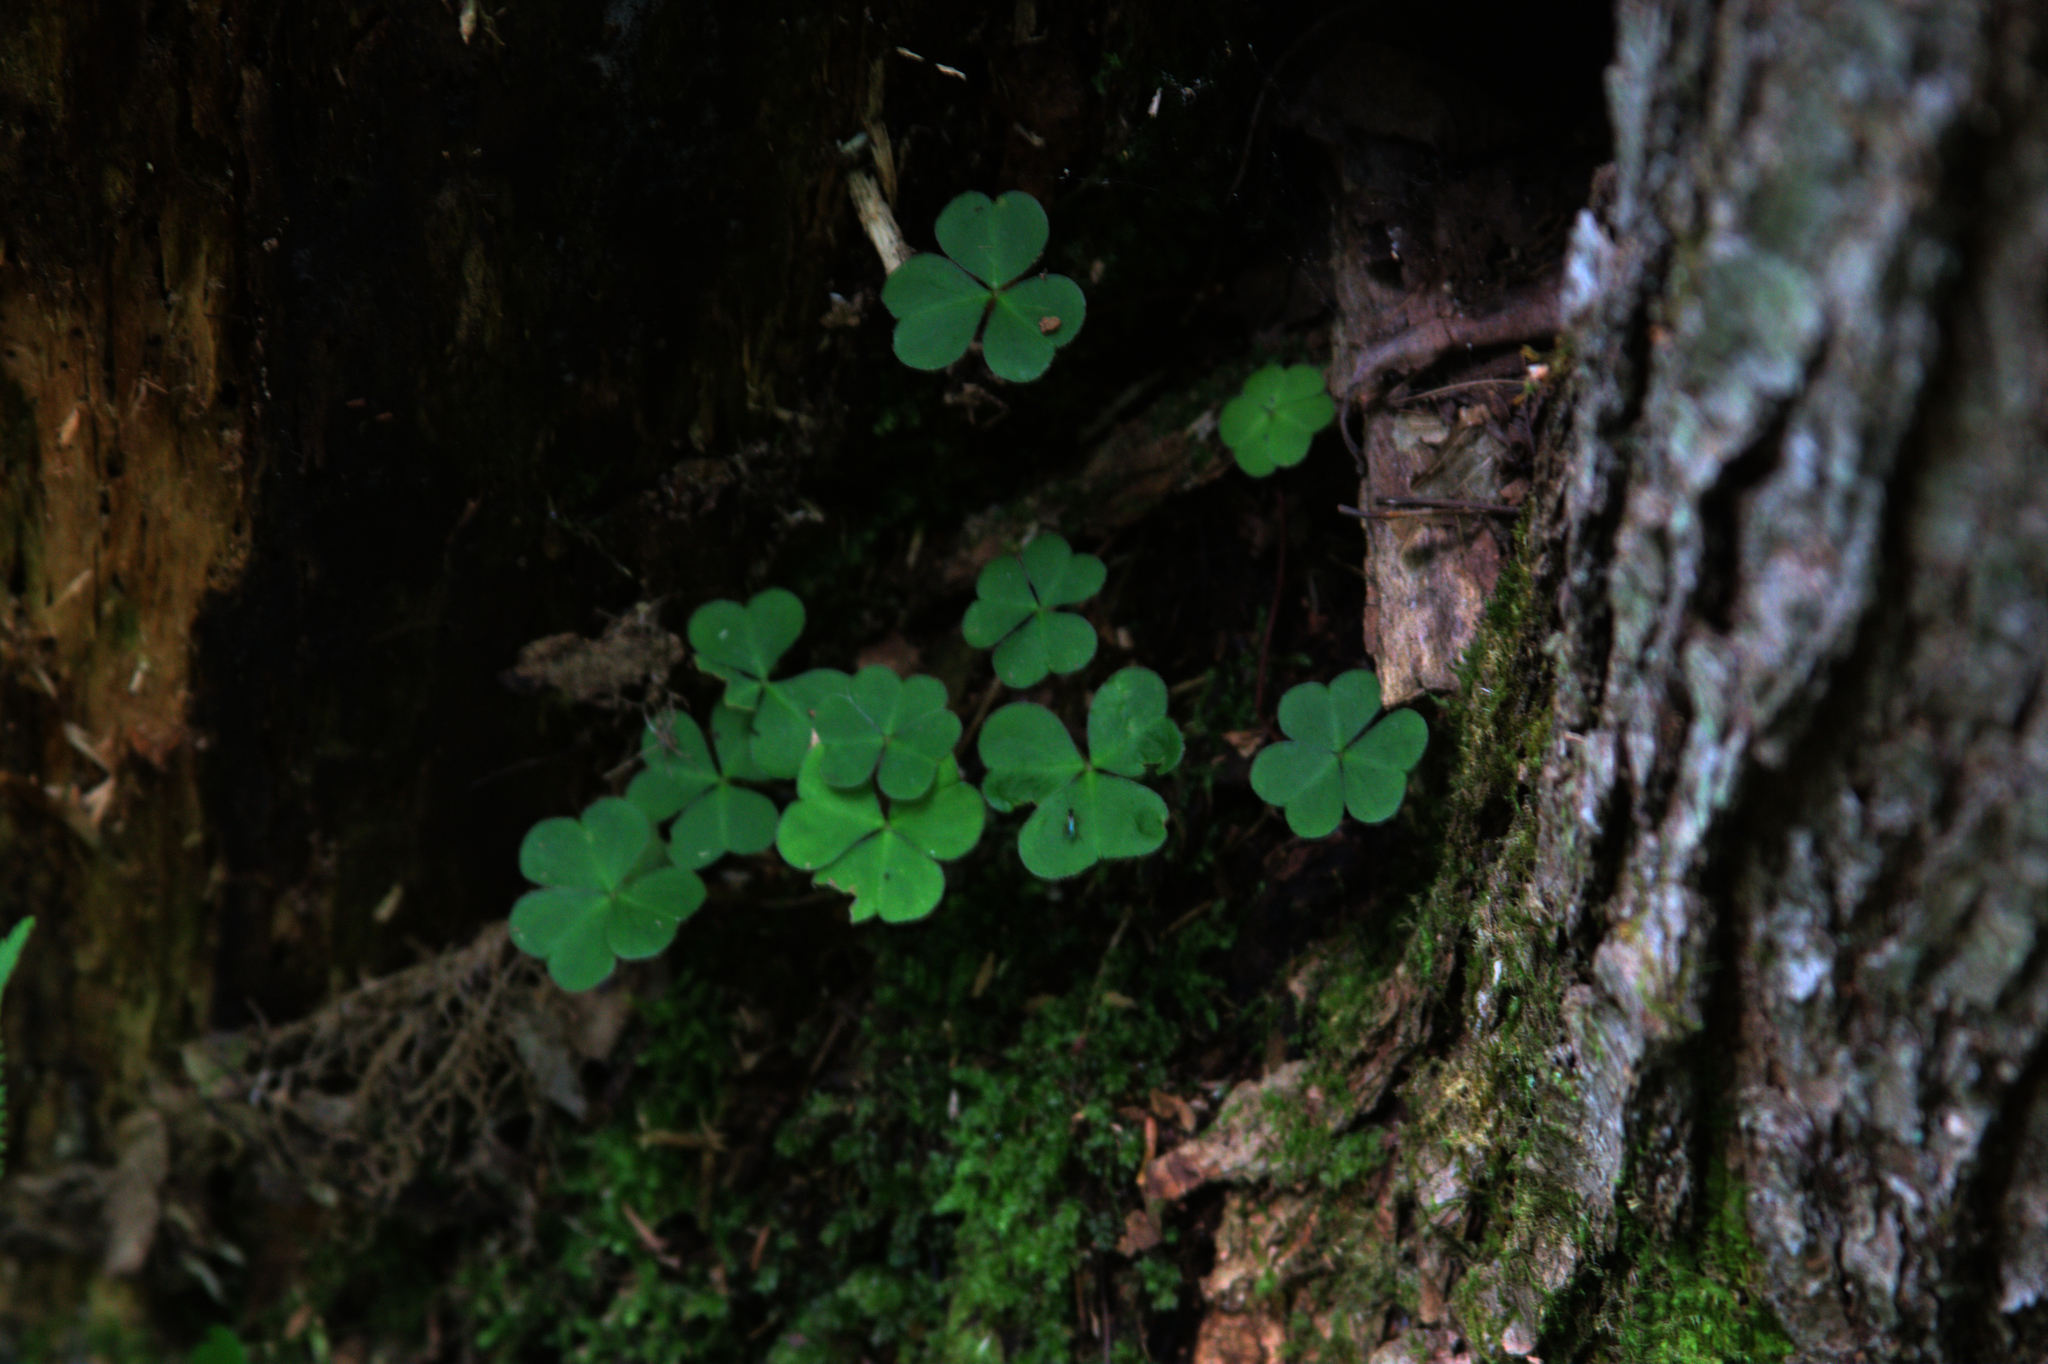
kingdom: Plantae
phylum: Tracheophyta
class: Magnoliopsida
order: Oxalidales
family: Oxalidaceae
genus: Oxalis
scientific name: Oxalis montana
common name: American wood-sorrel
